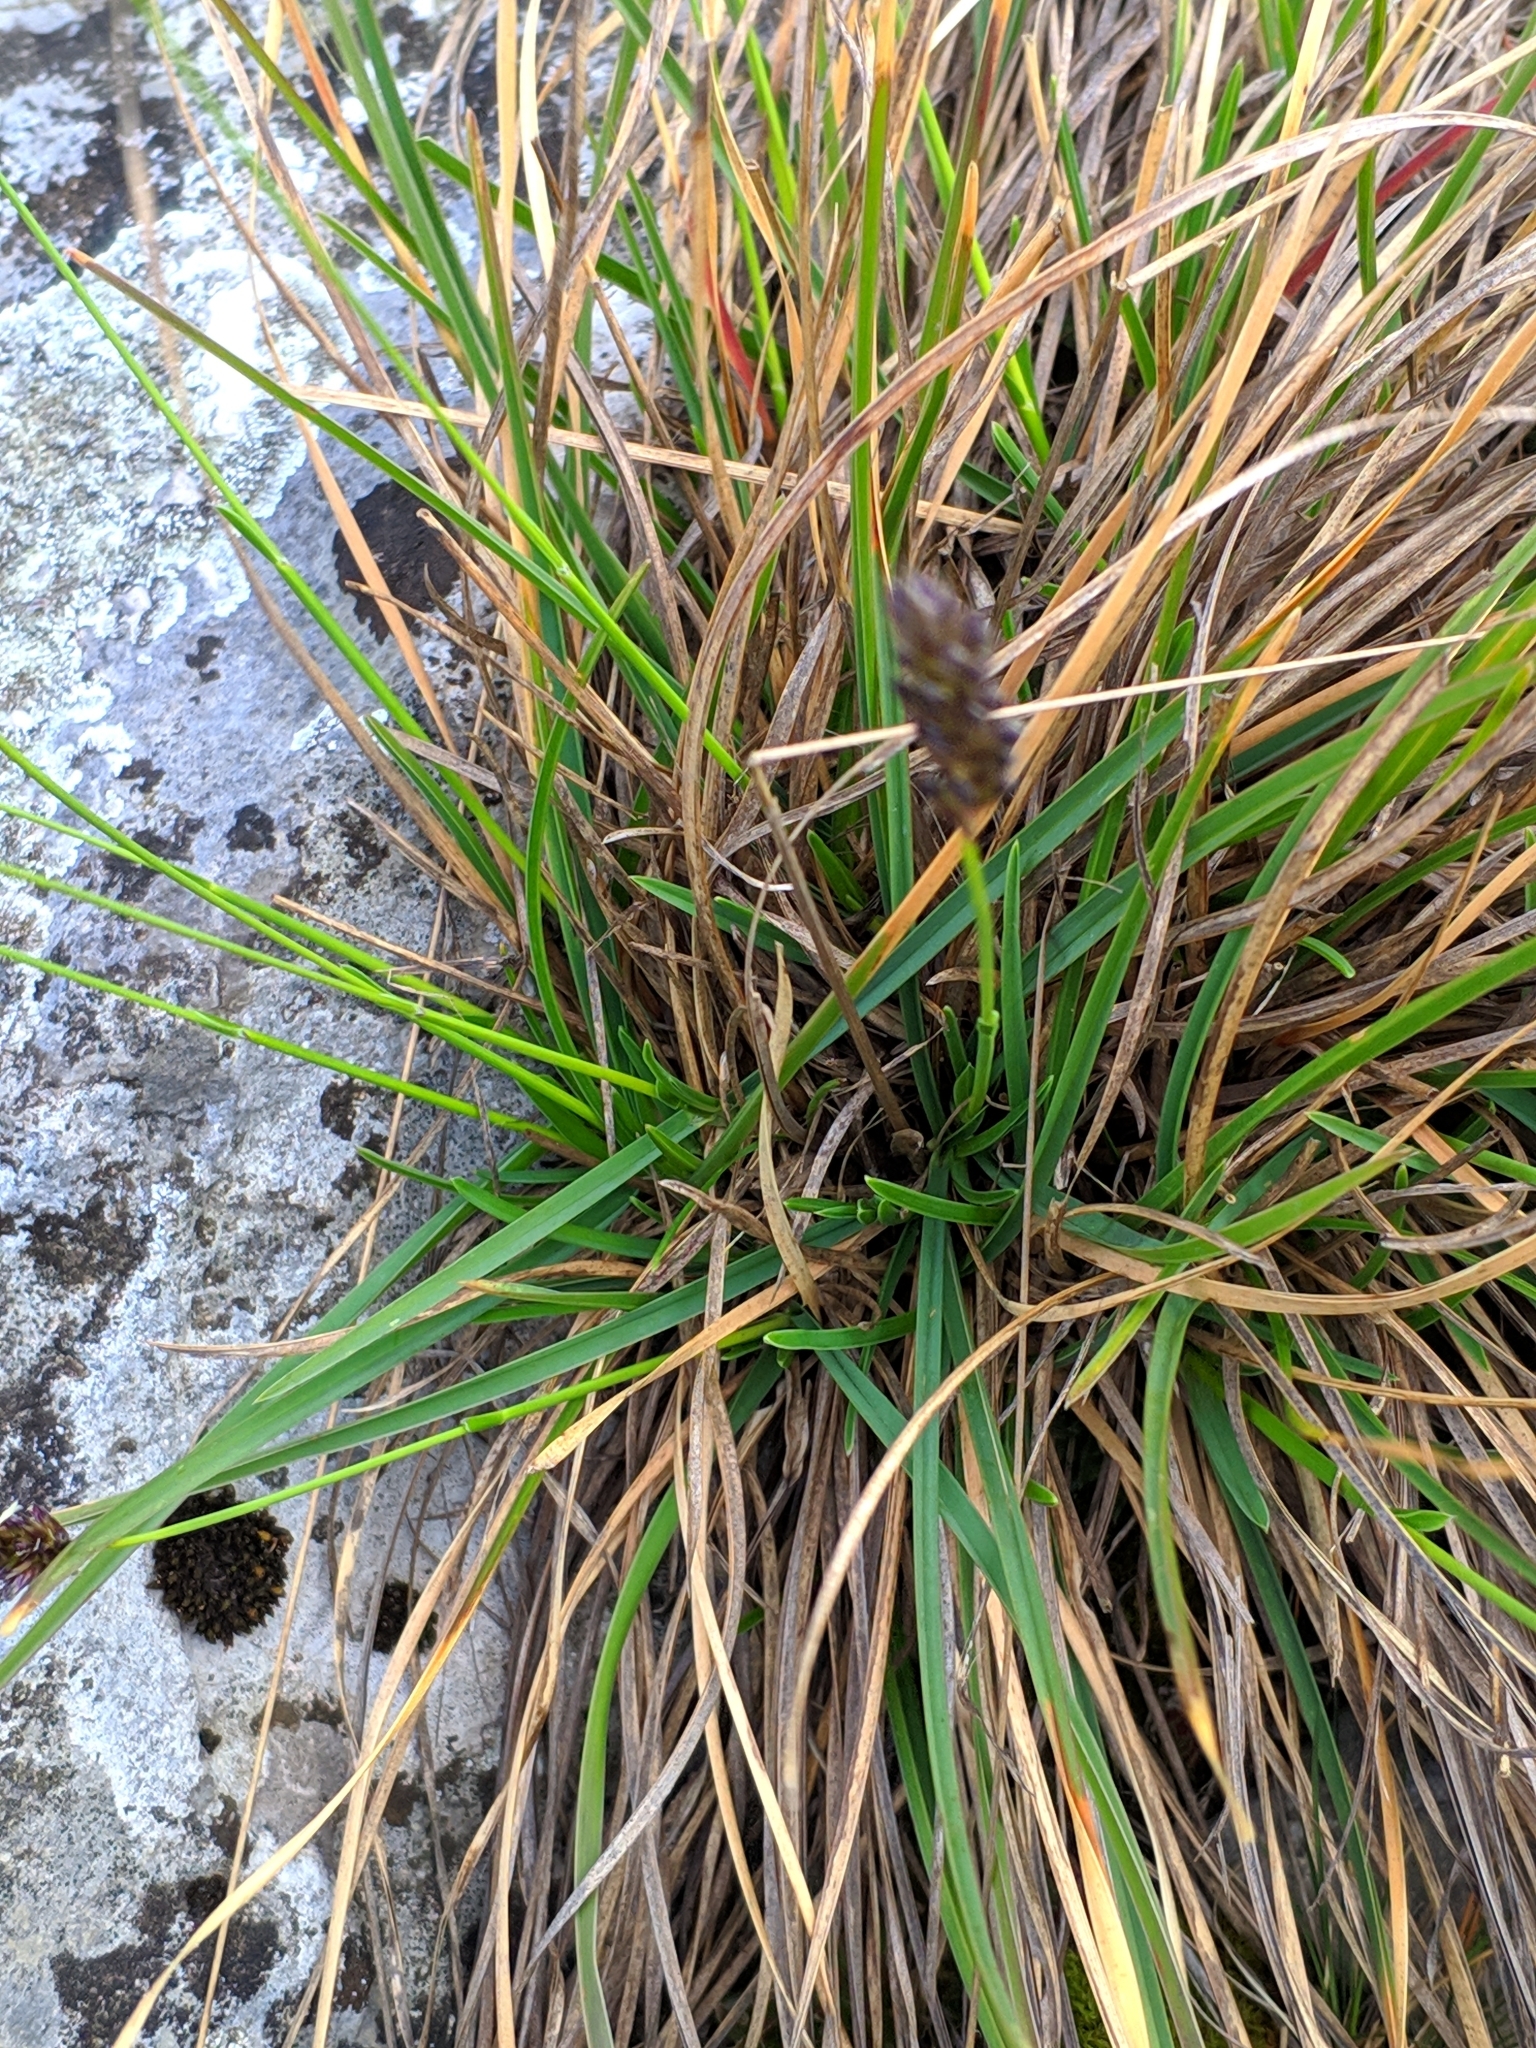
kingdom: Plantae
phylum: Tracheophyta
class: Liliopsida
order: Poales
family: Poaceae
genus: Sesleria
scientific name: Sesleria caerulea
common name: Blue moor-grass
